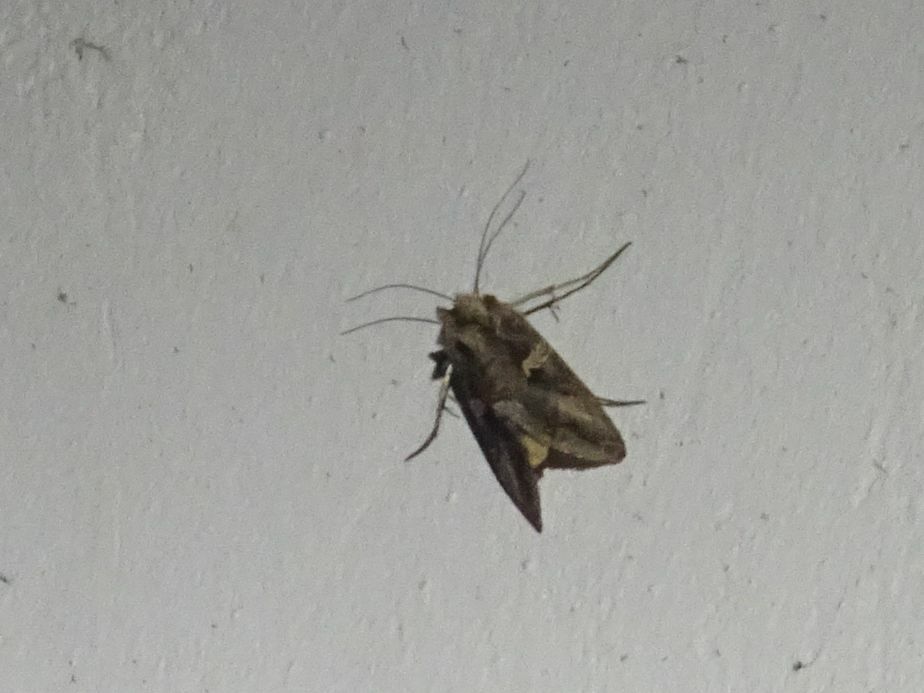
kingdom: Animalia
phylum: Arthropoda
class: Insecta
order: Lepidoptera
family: Noctuidae
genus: Autographa
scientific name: Autographa gamma
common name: Silver y
